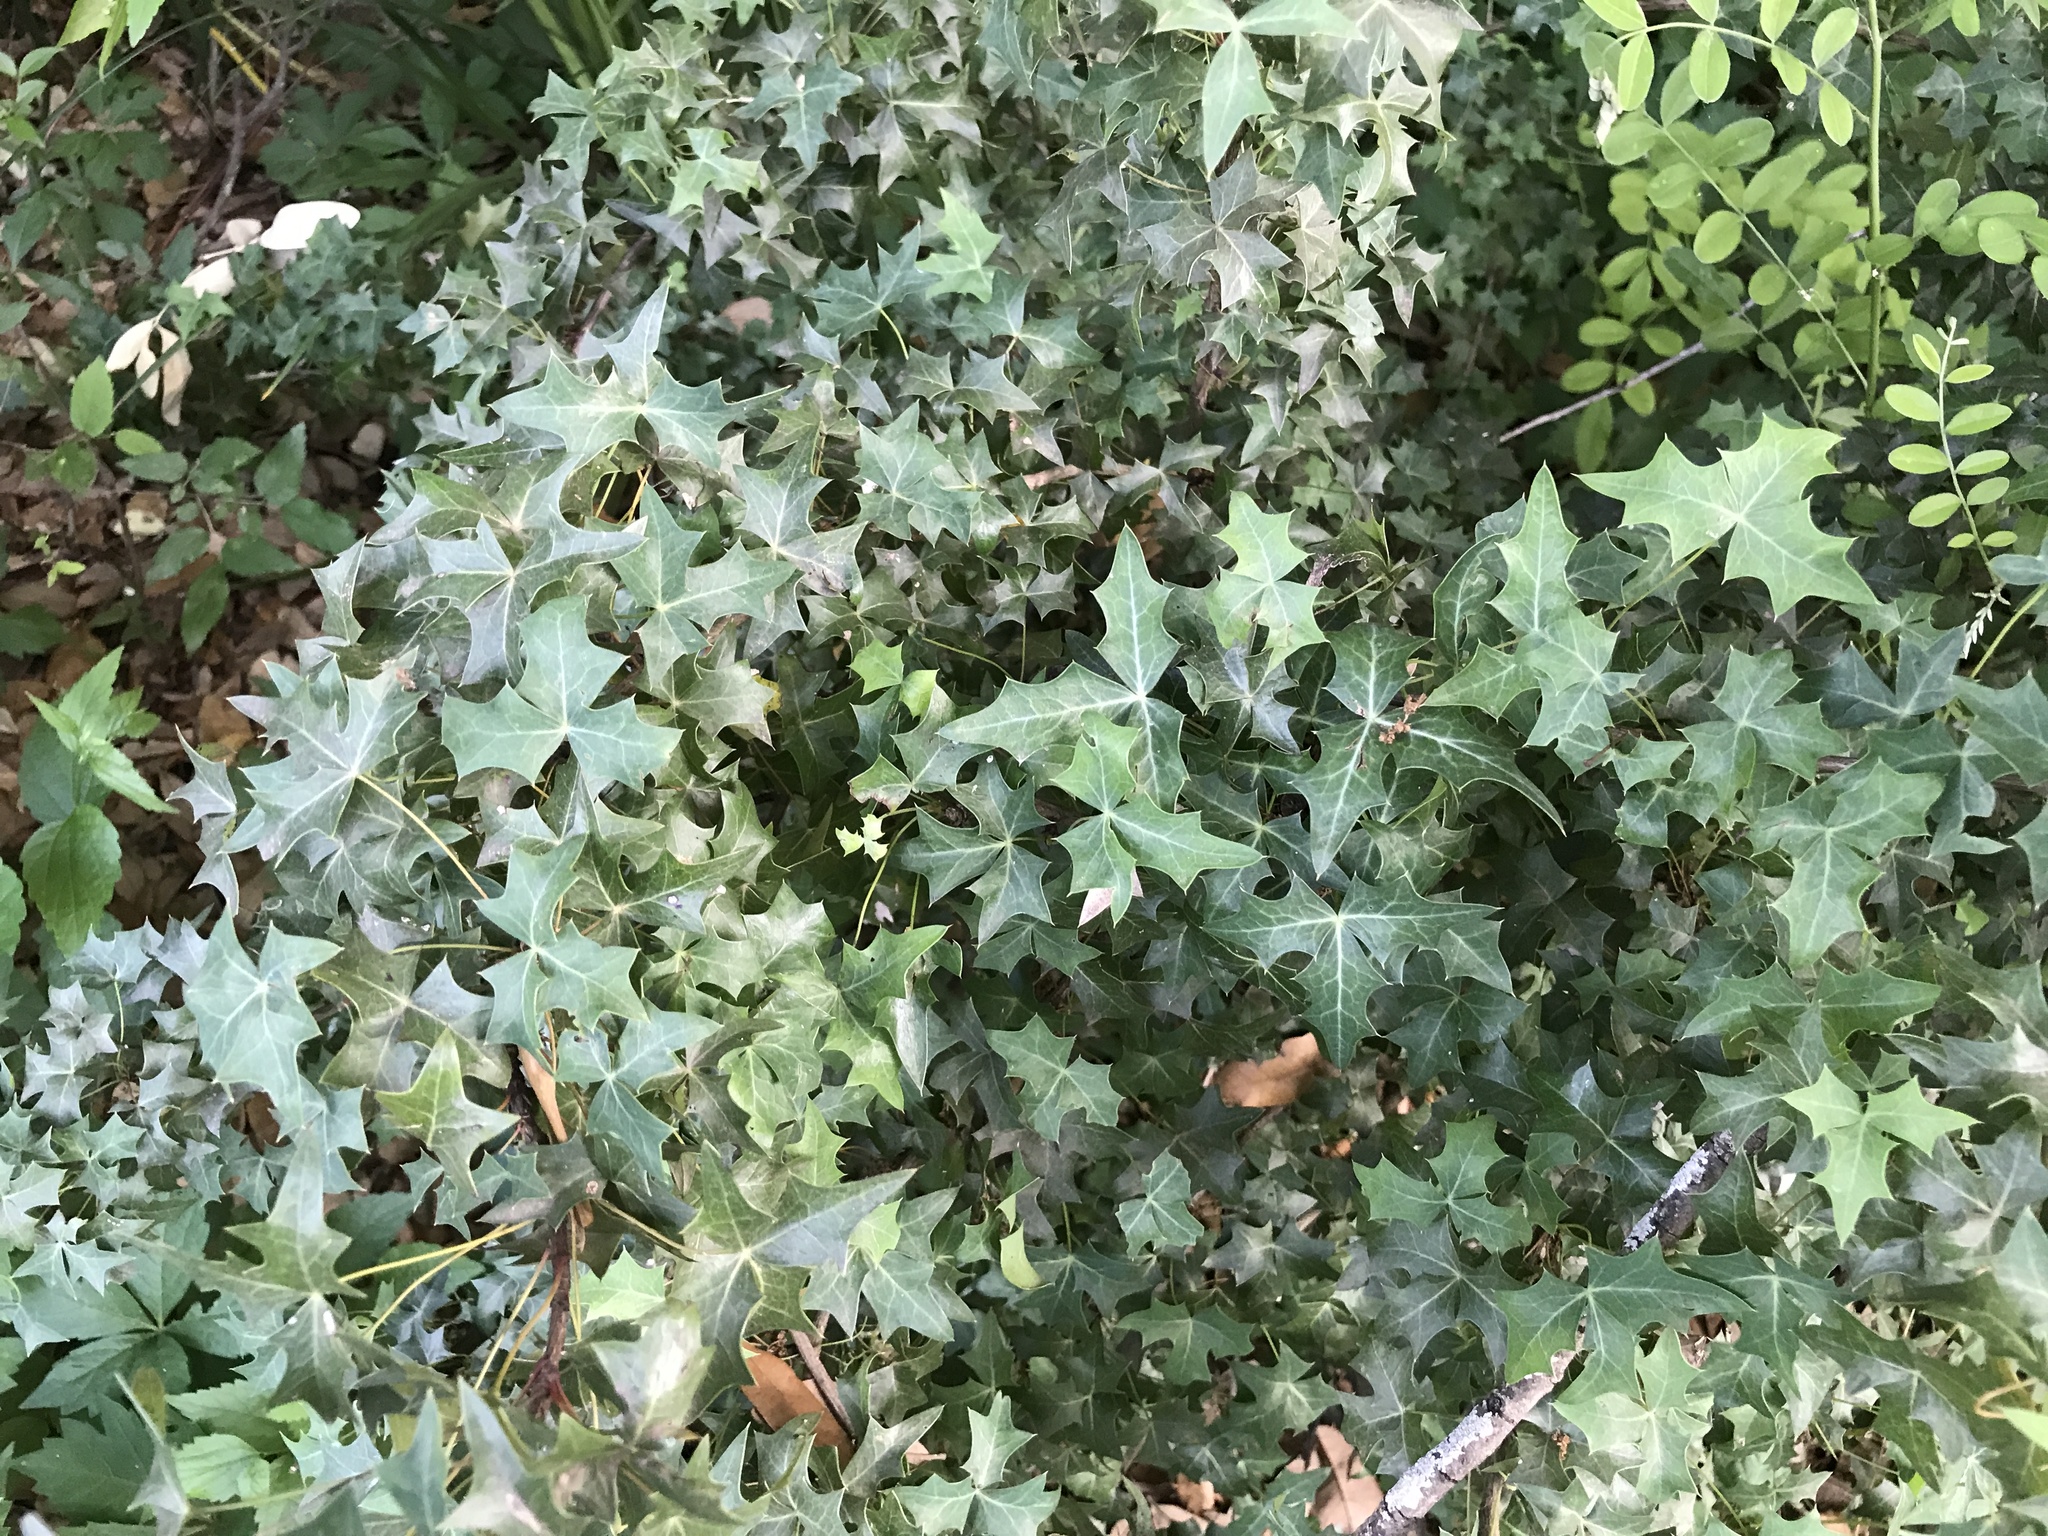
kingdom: Plantae
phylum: Tracheophyta
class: Magnoliopsida
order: Ranunculales
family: Berberidaceae
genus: Alloberberis
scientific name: Alloberberis trifoliolata
